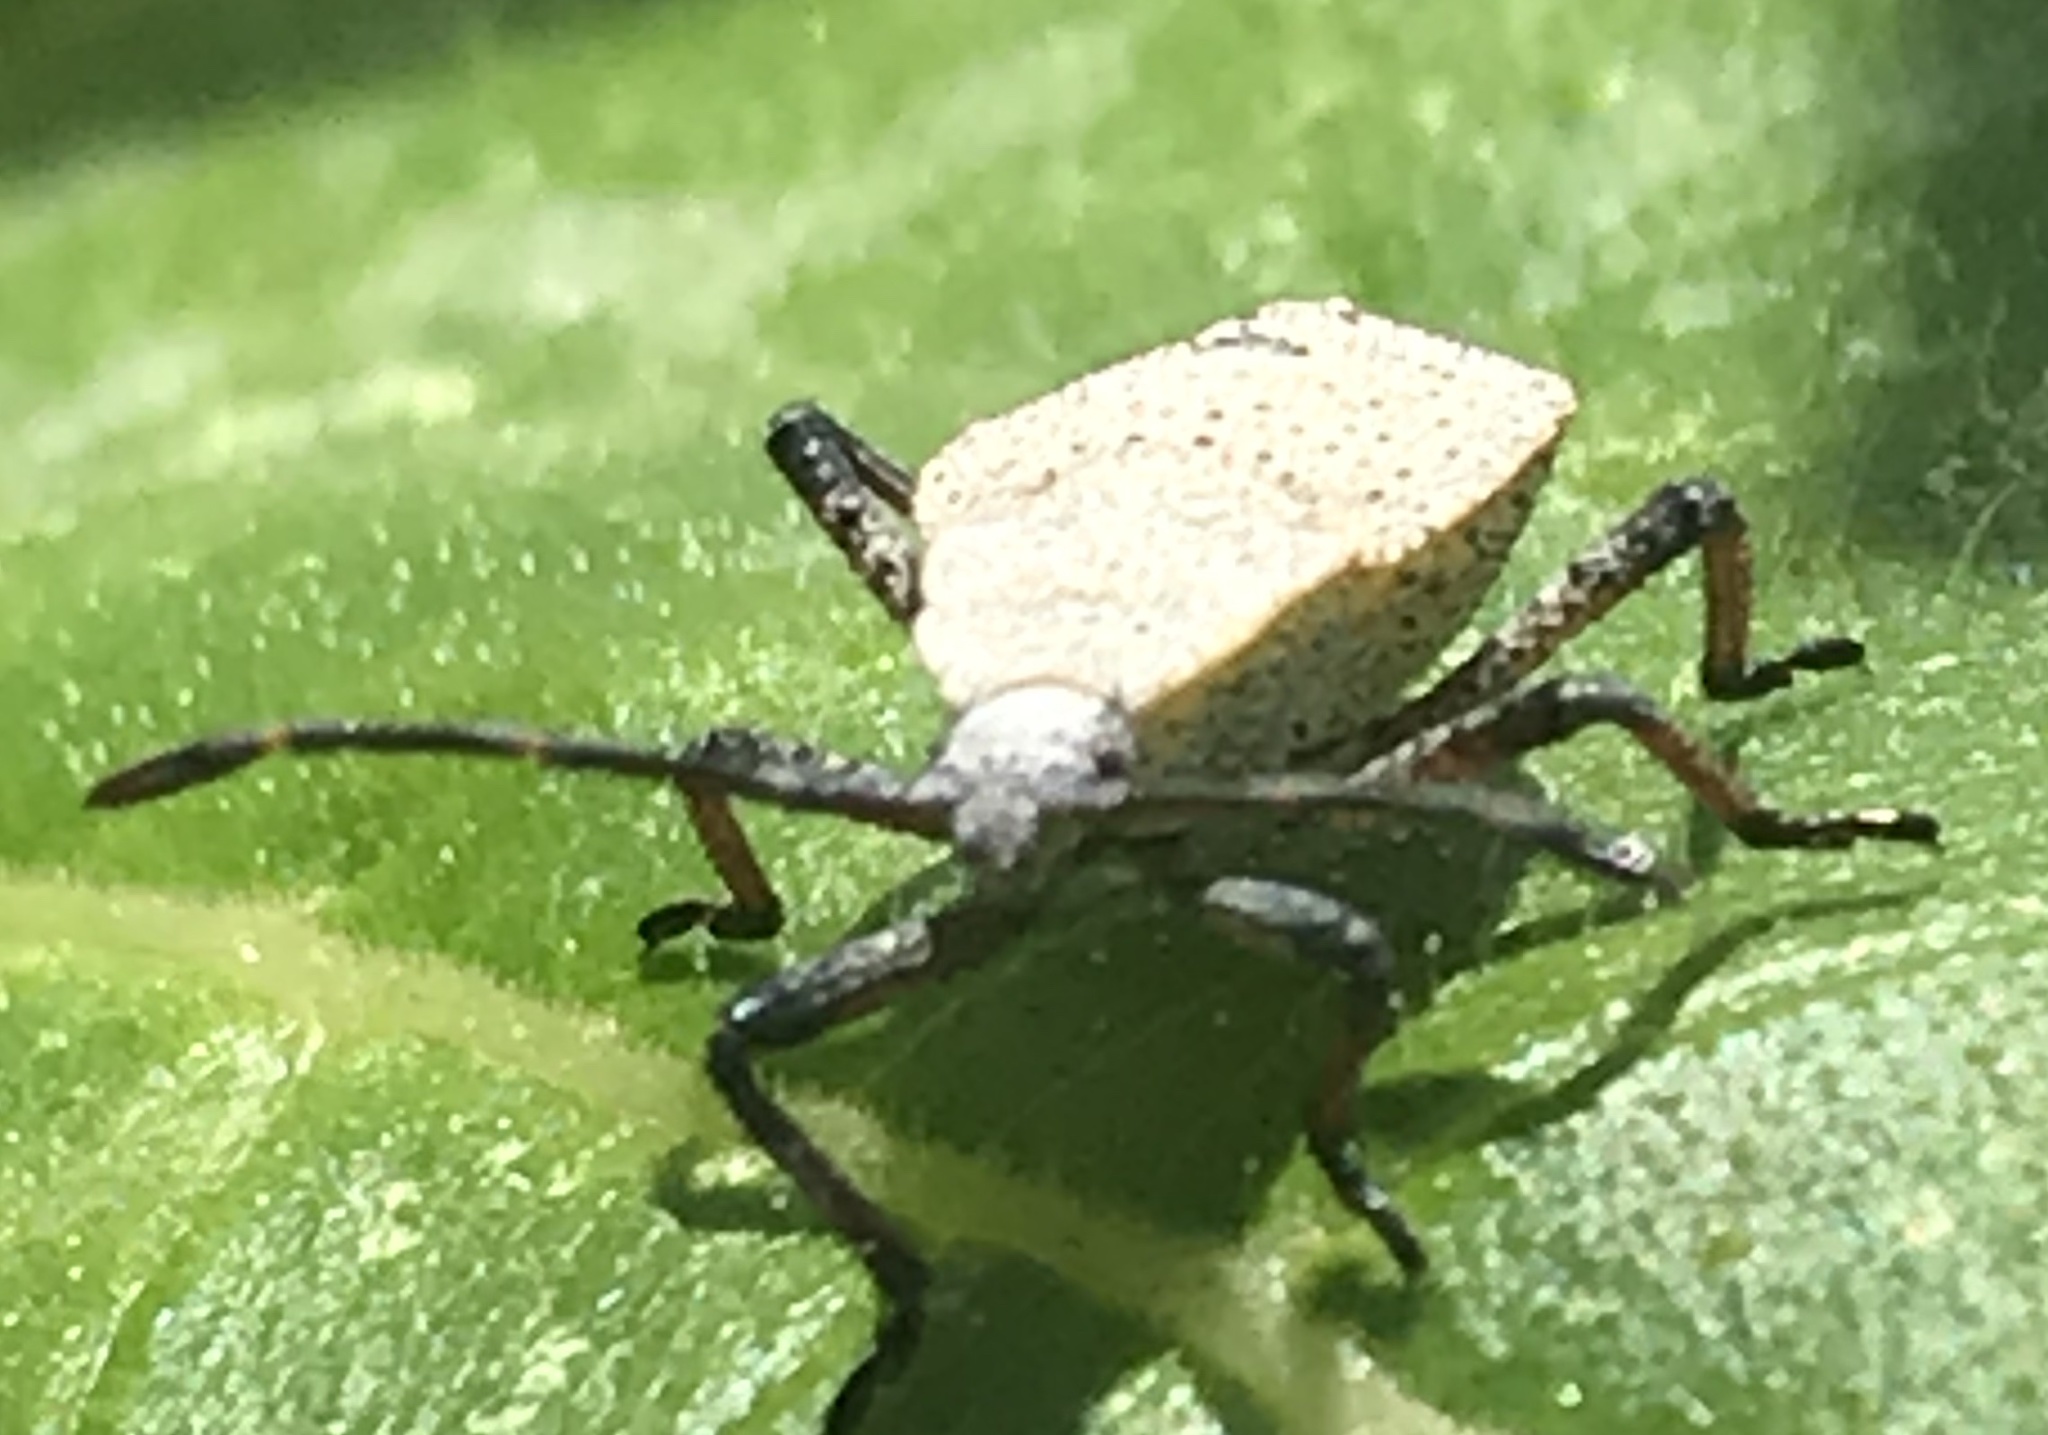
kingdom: Animalia
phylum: Arthropoda
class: Insecta
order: Hemiptera
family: Coreidae
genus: Anasa
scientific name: Anasa tristis
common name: Squash bug
